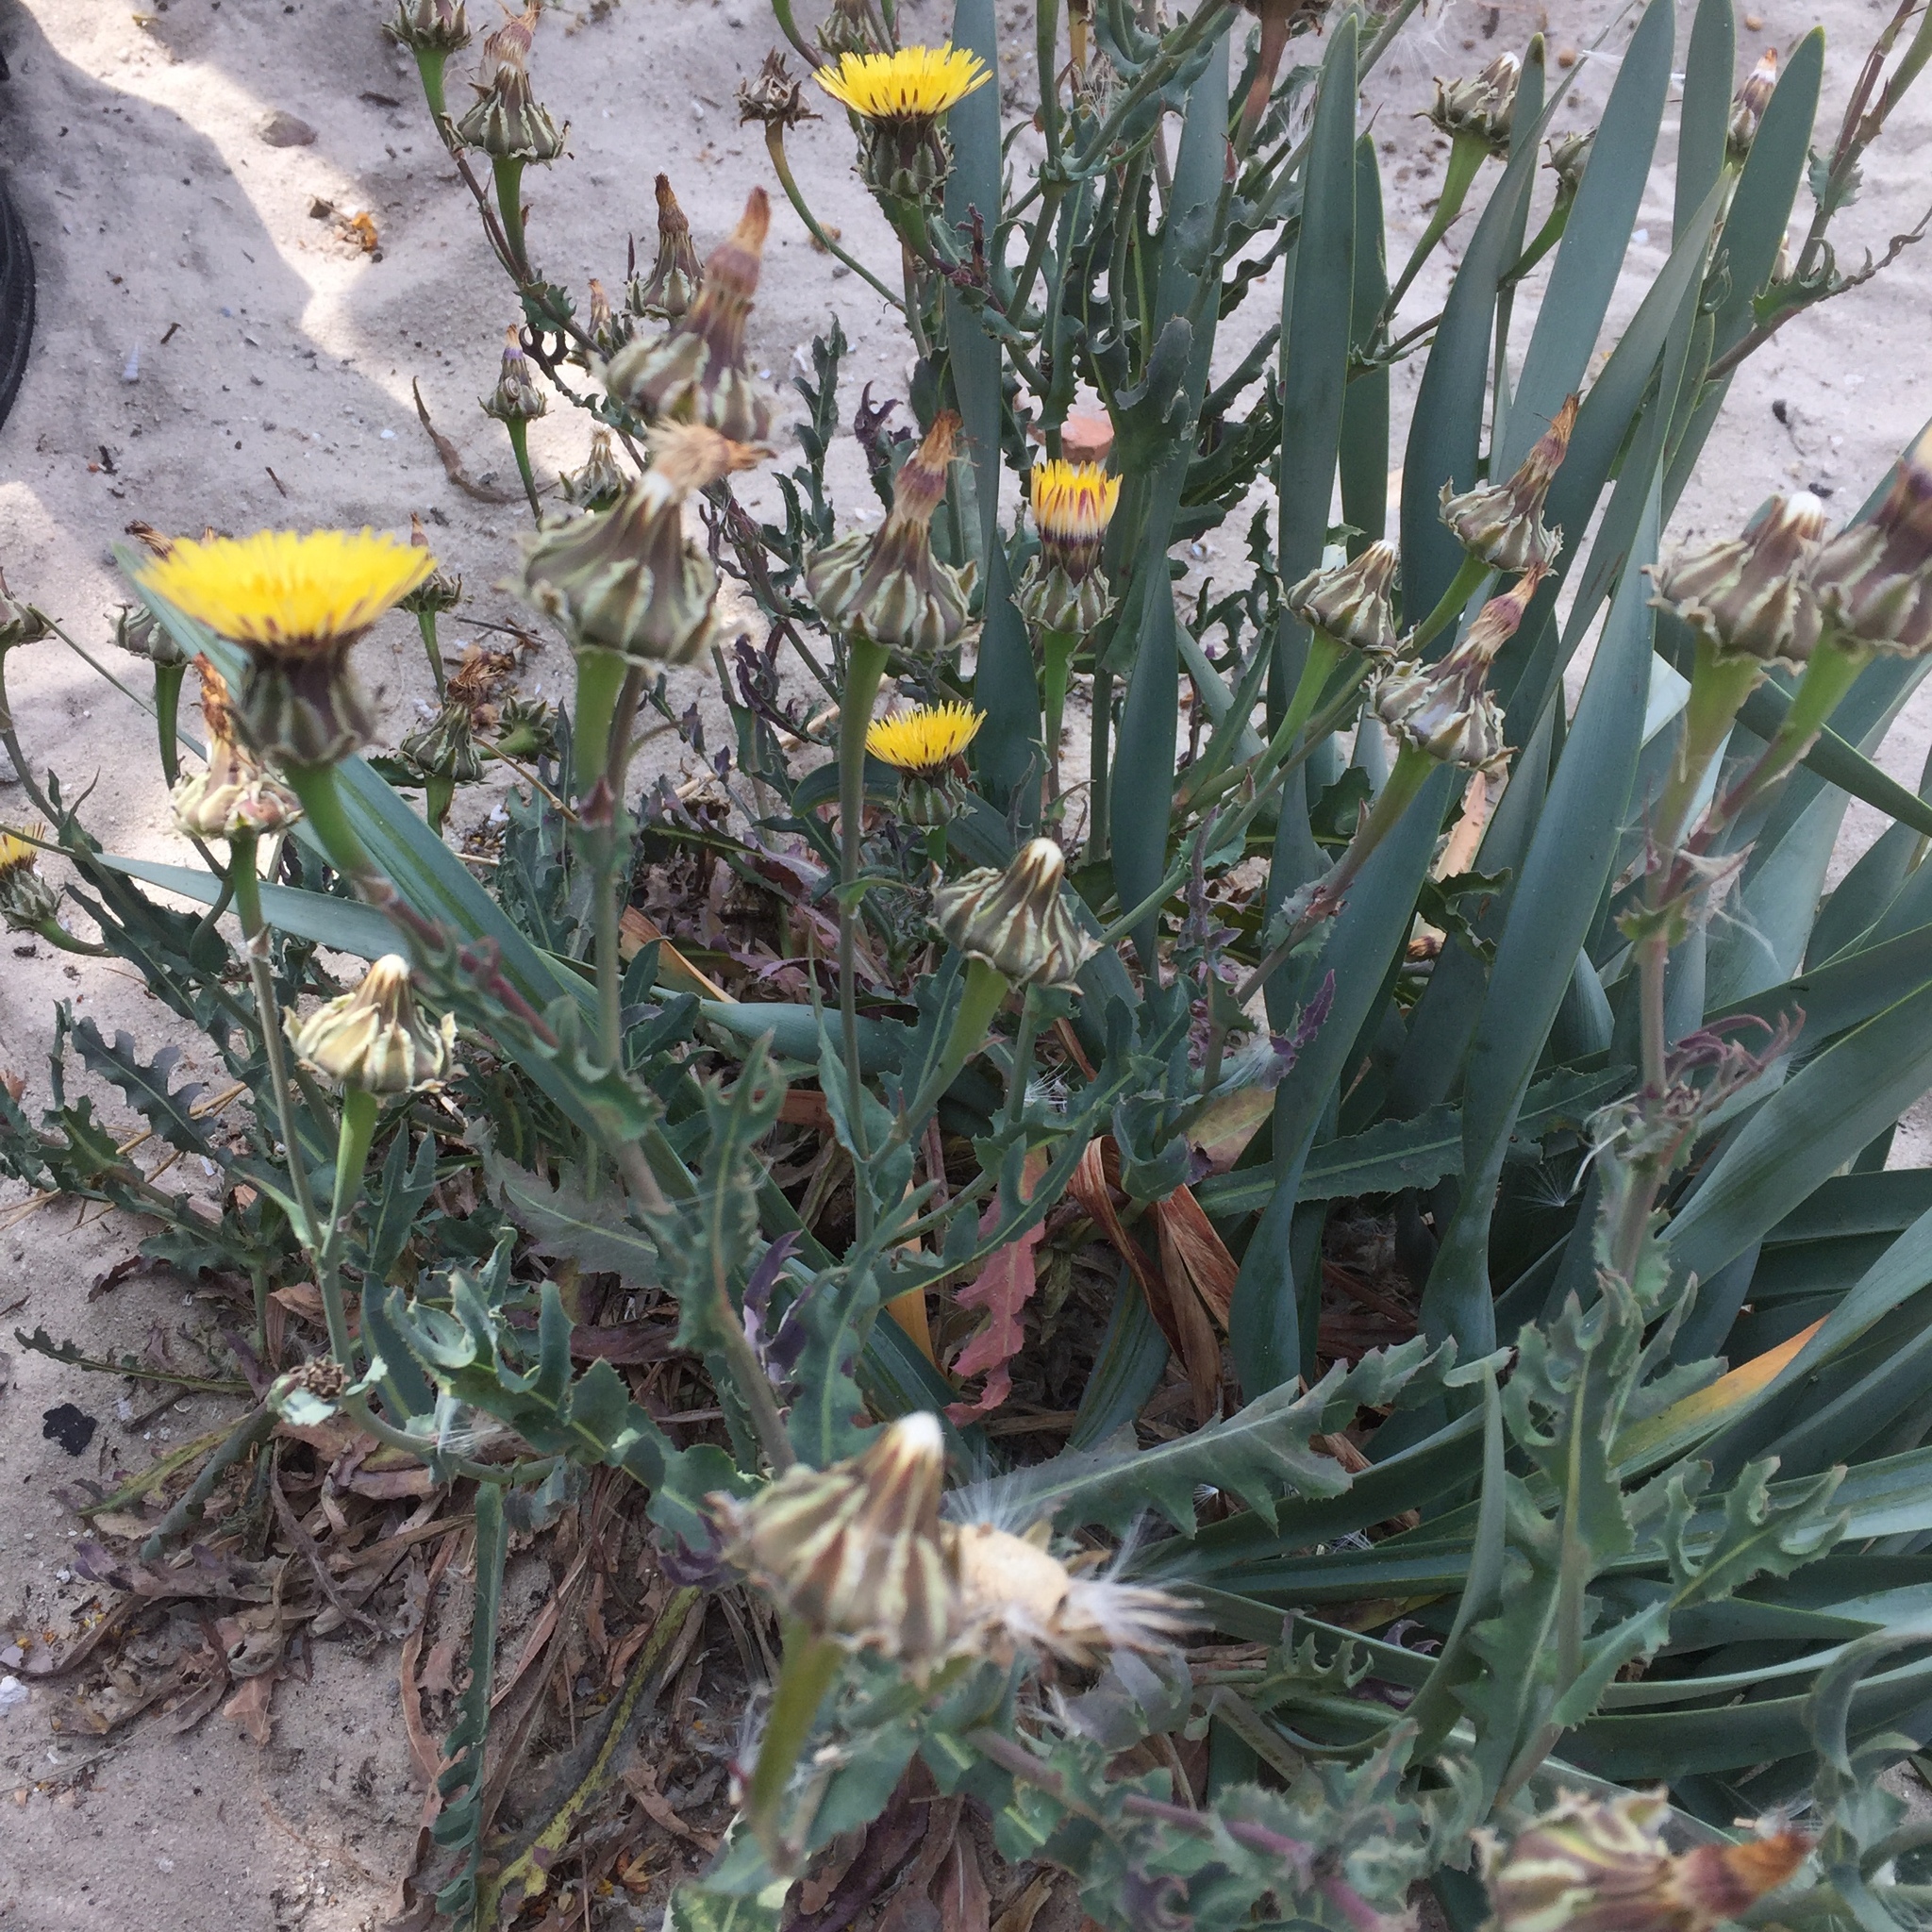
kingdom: Plantae
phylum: Tracheophyta
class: Magnoliopsida
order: Asterales
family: Asteraceae
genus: Reichardia
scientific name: Reichardia gaditana
